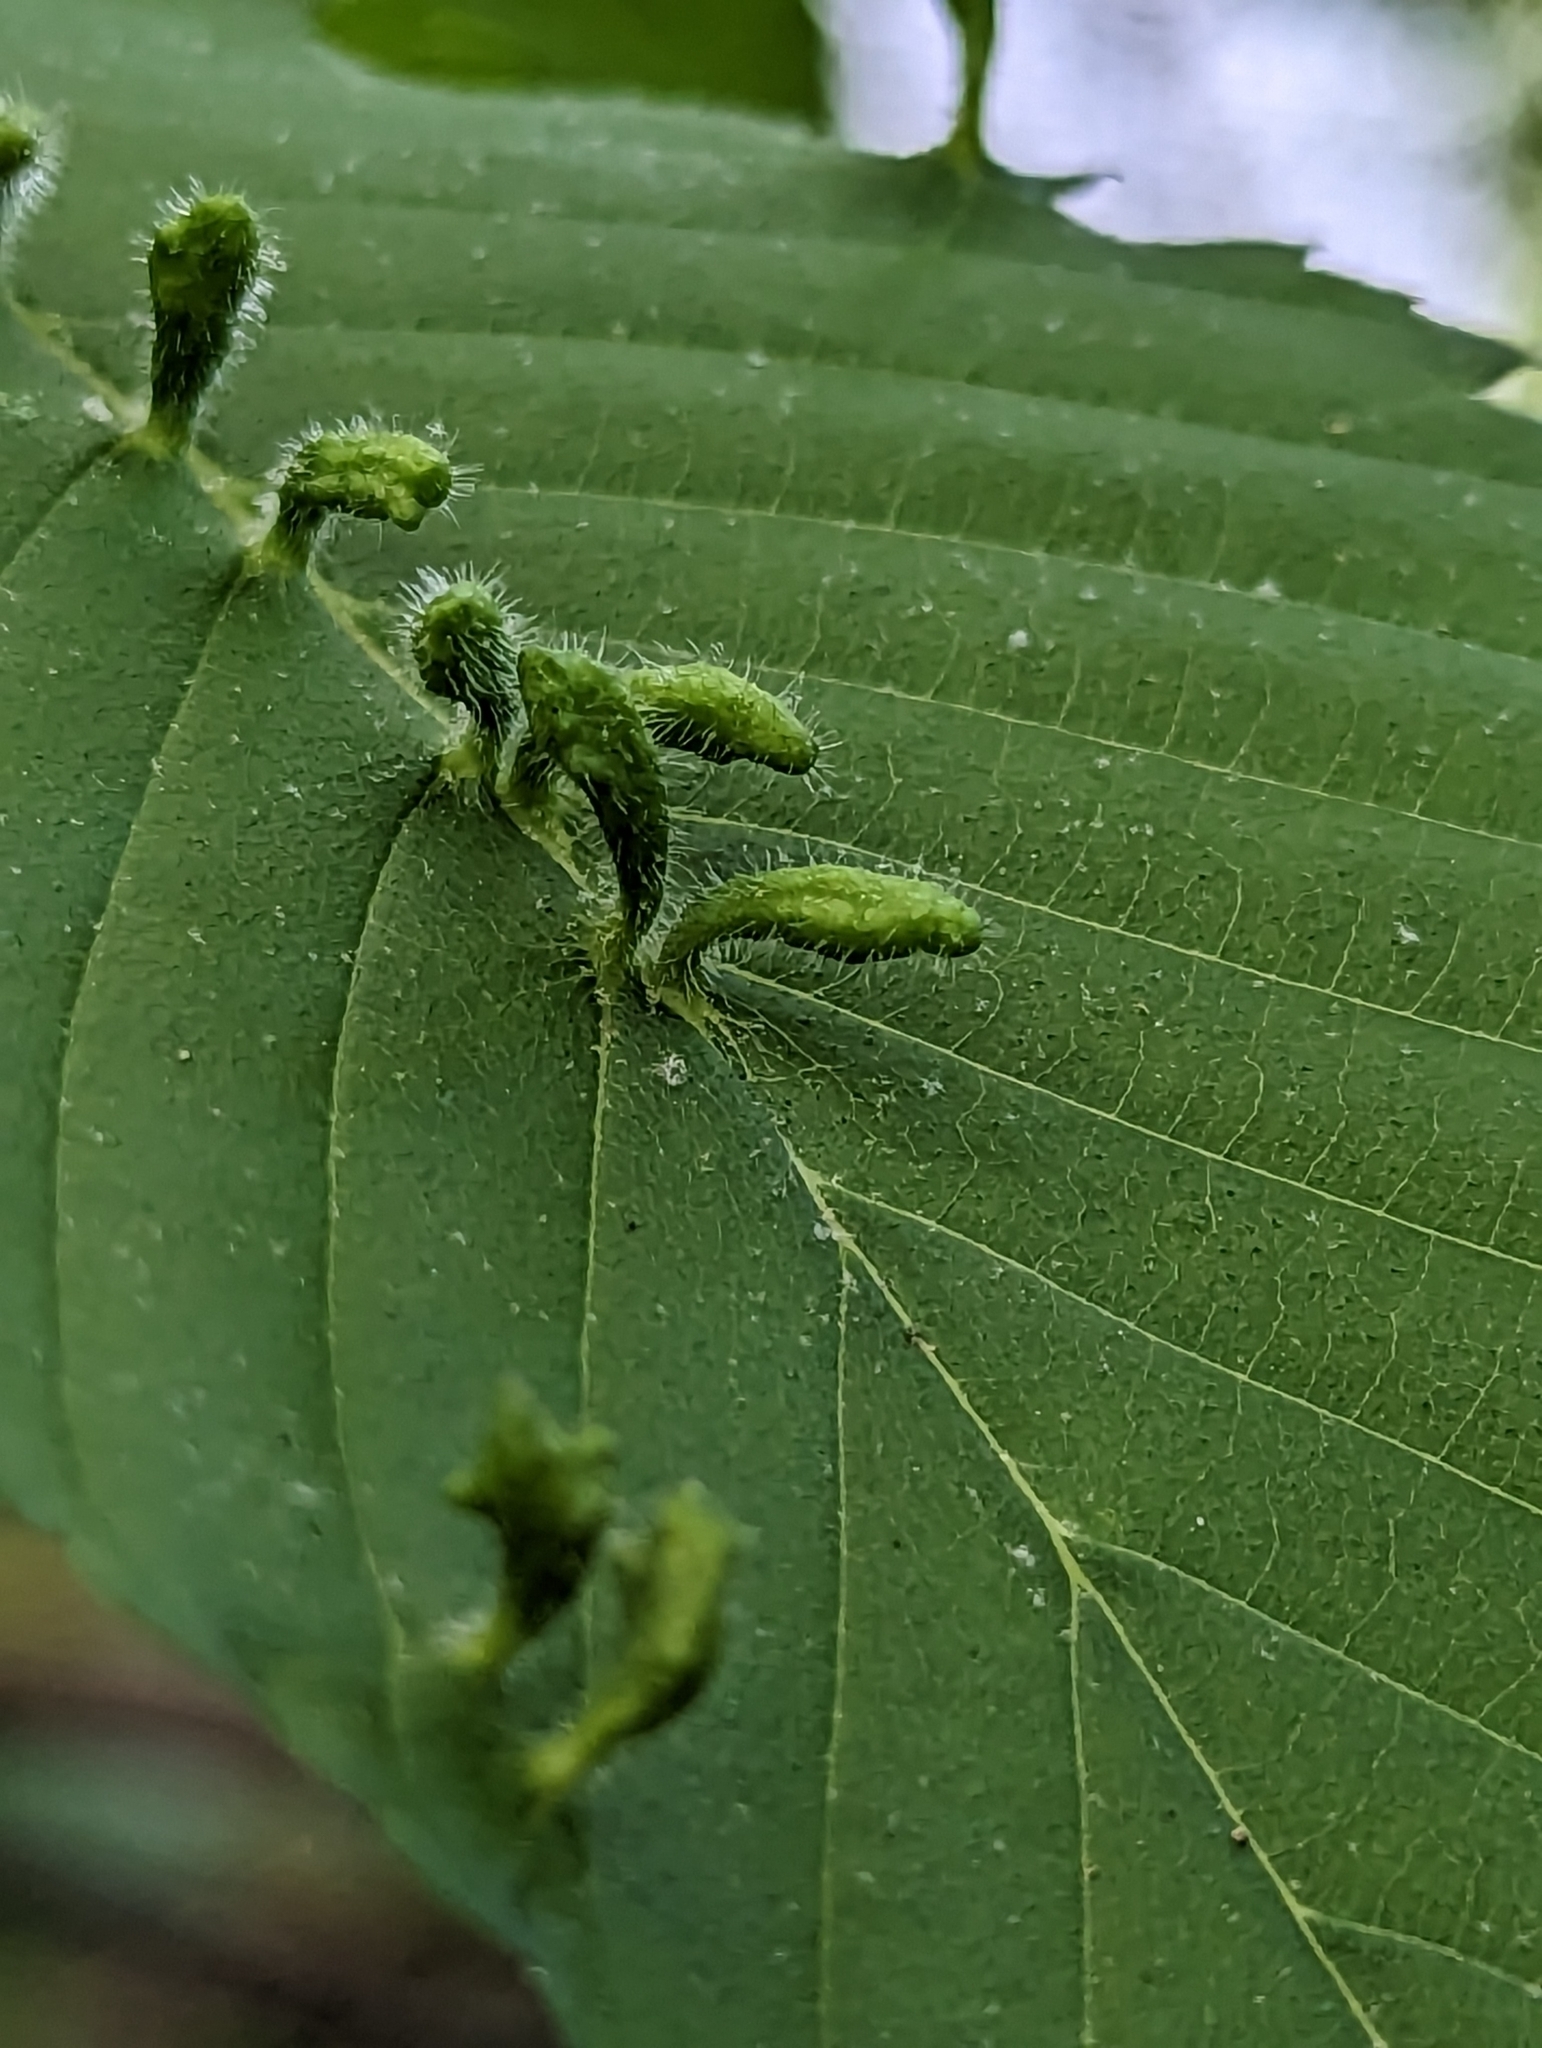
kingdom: Animalia
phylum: Arthropoda
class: Arachnida
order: Trombidiformes
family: Eriophyidae
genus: Aceria
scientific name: Aceria
